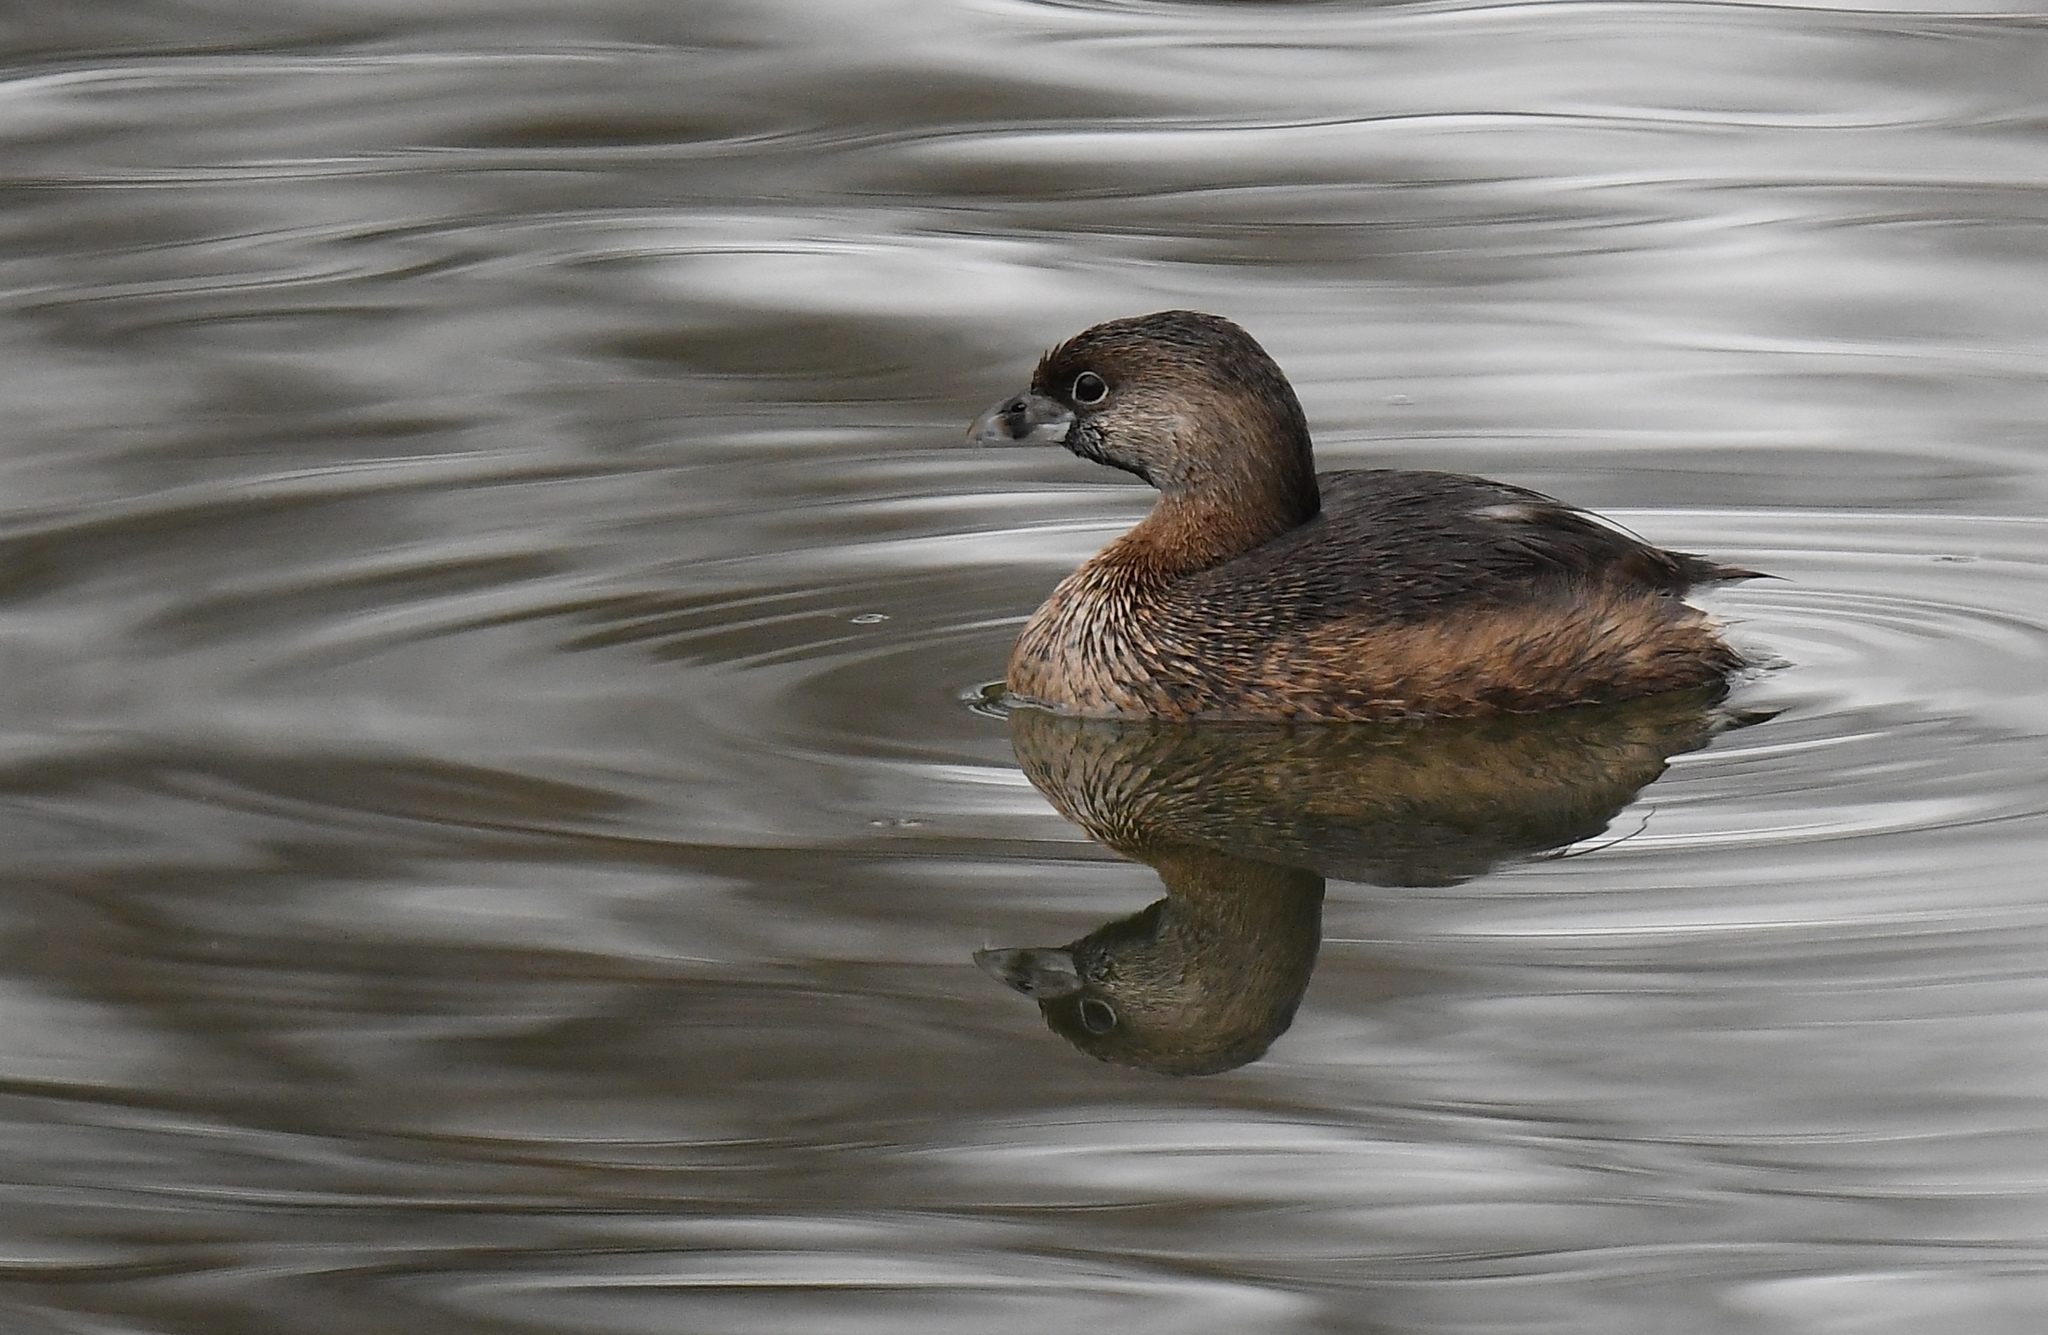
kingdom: Animalia
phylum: Chordata
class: Aves
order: Podicipediformes
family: Podicipedidae
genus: Podilymbus
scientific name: Podilymbus podiceps
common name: Pied-billed grebe
